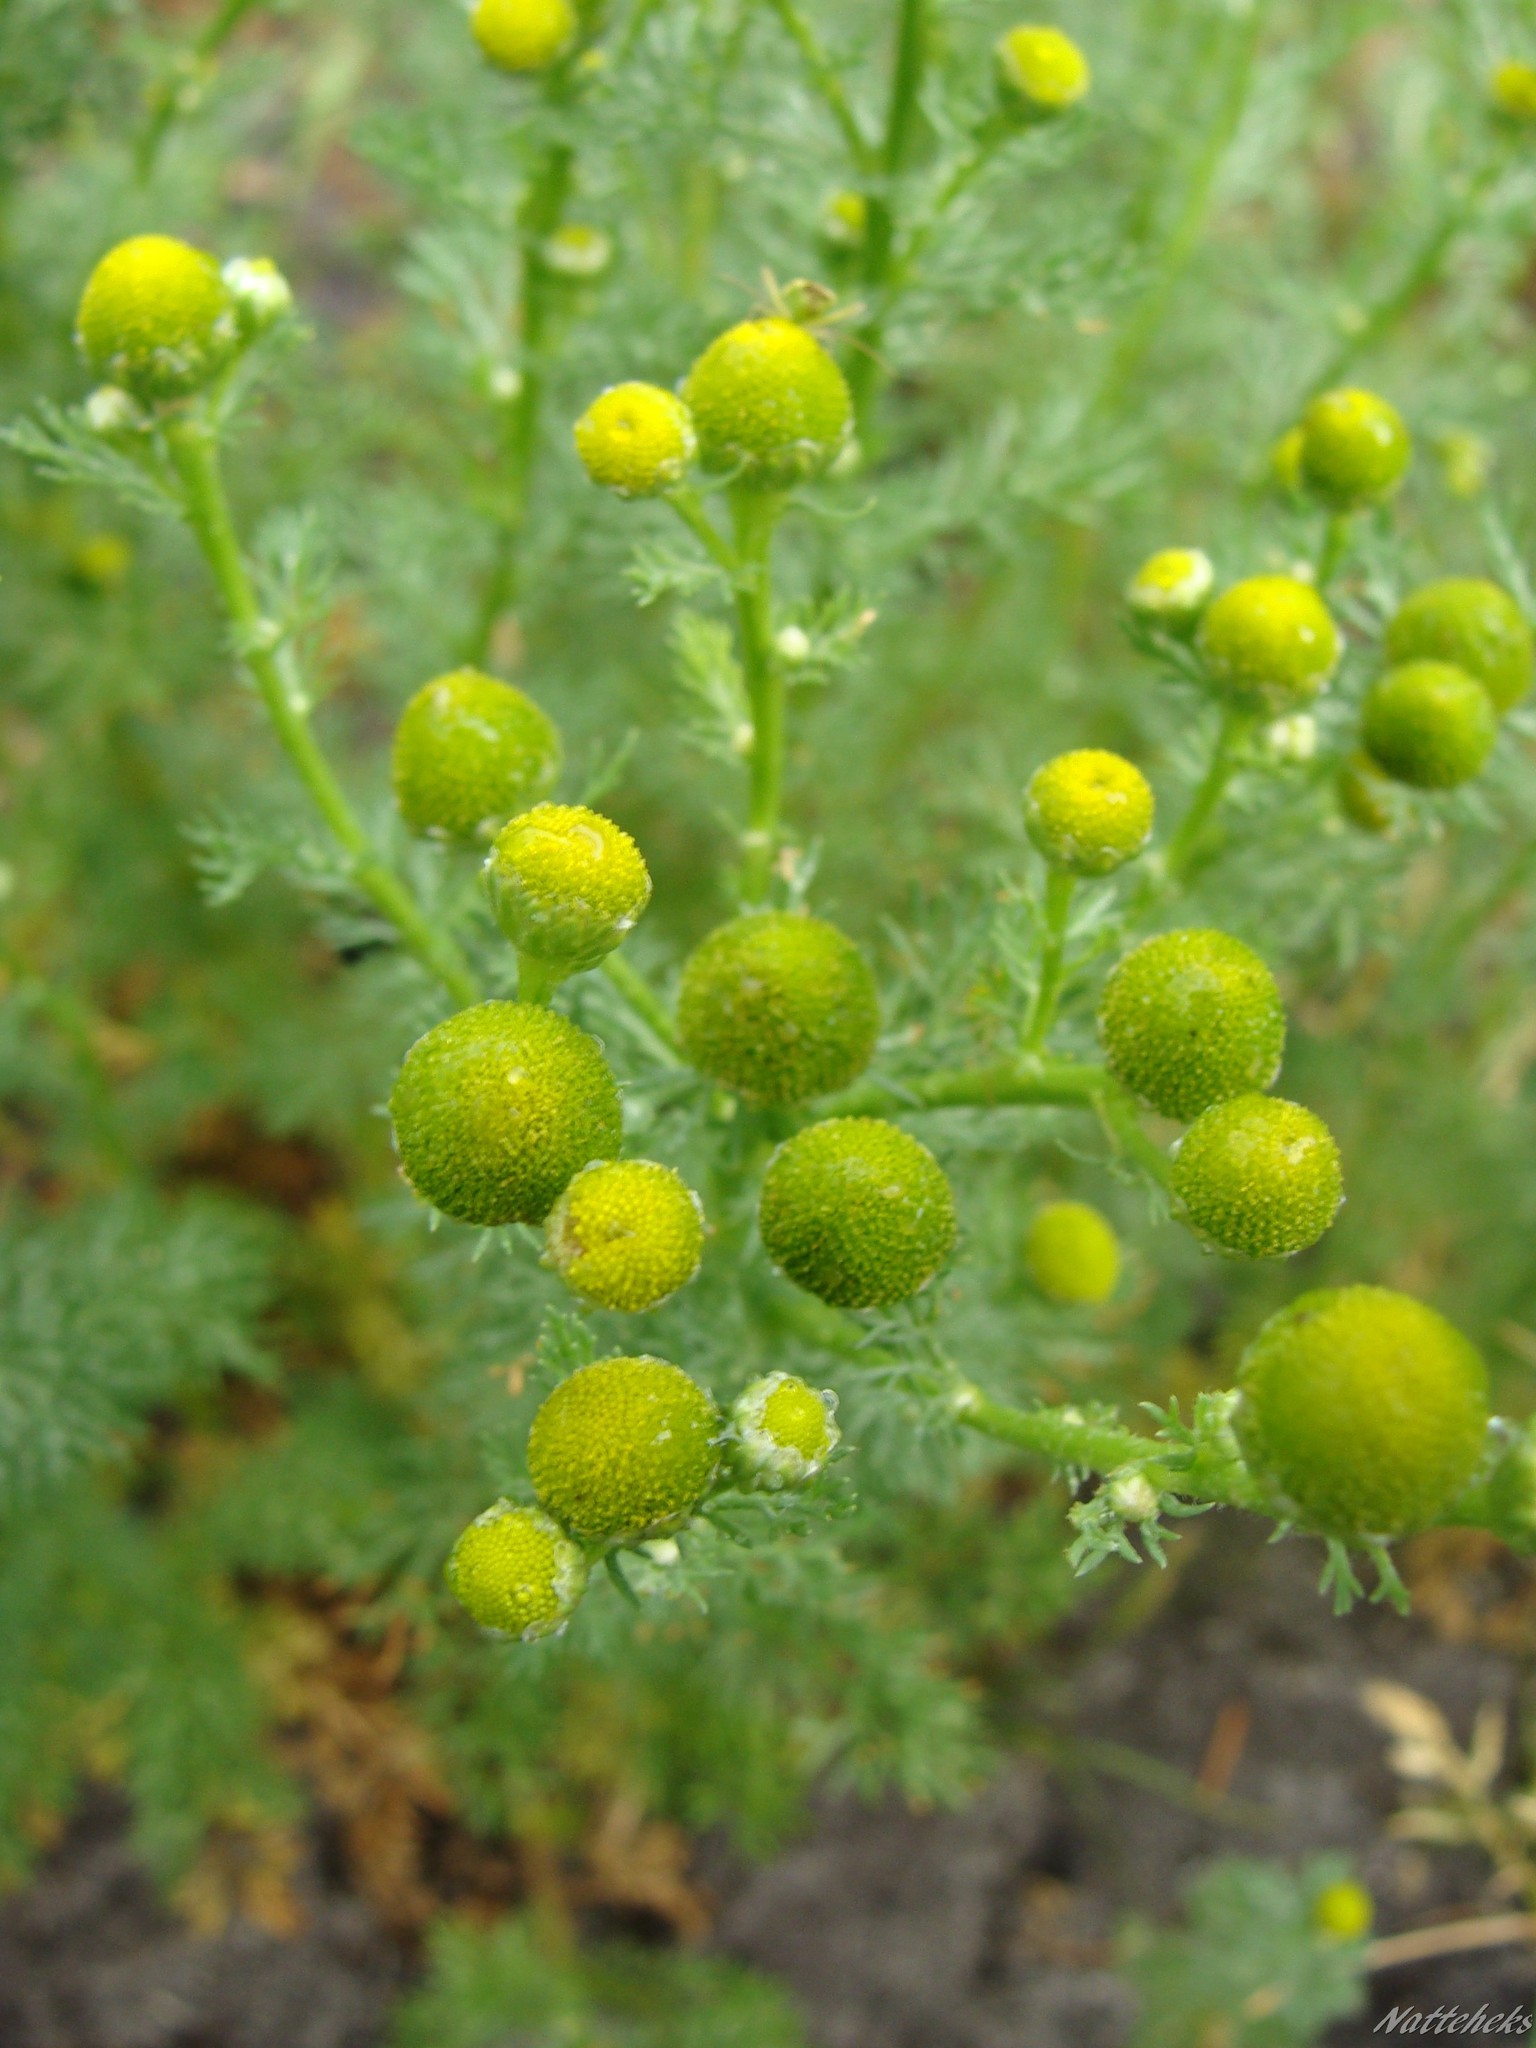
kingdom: Plantae
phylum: Tracheophyta
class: Magnoliopsida
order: Asterales
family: Asteraceae
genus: Matricaria
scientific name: Matricaria discoidea
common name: Disc mayweed
